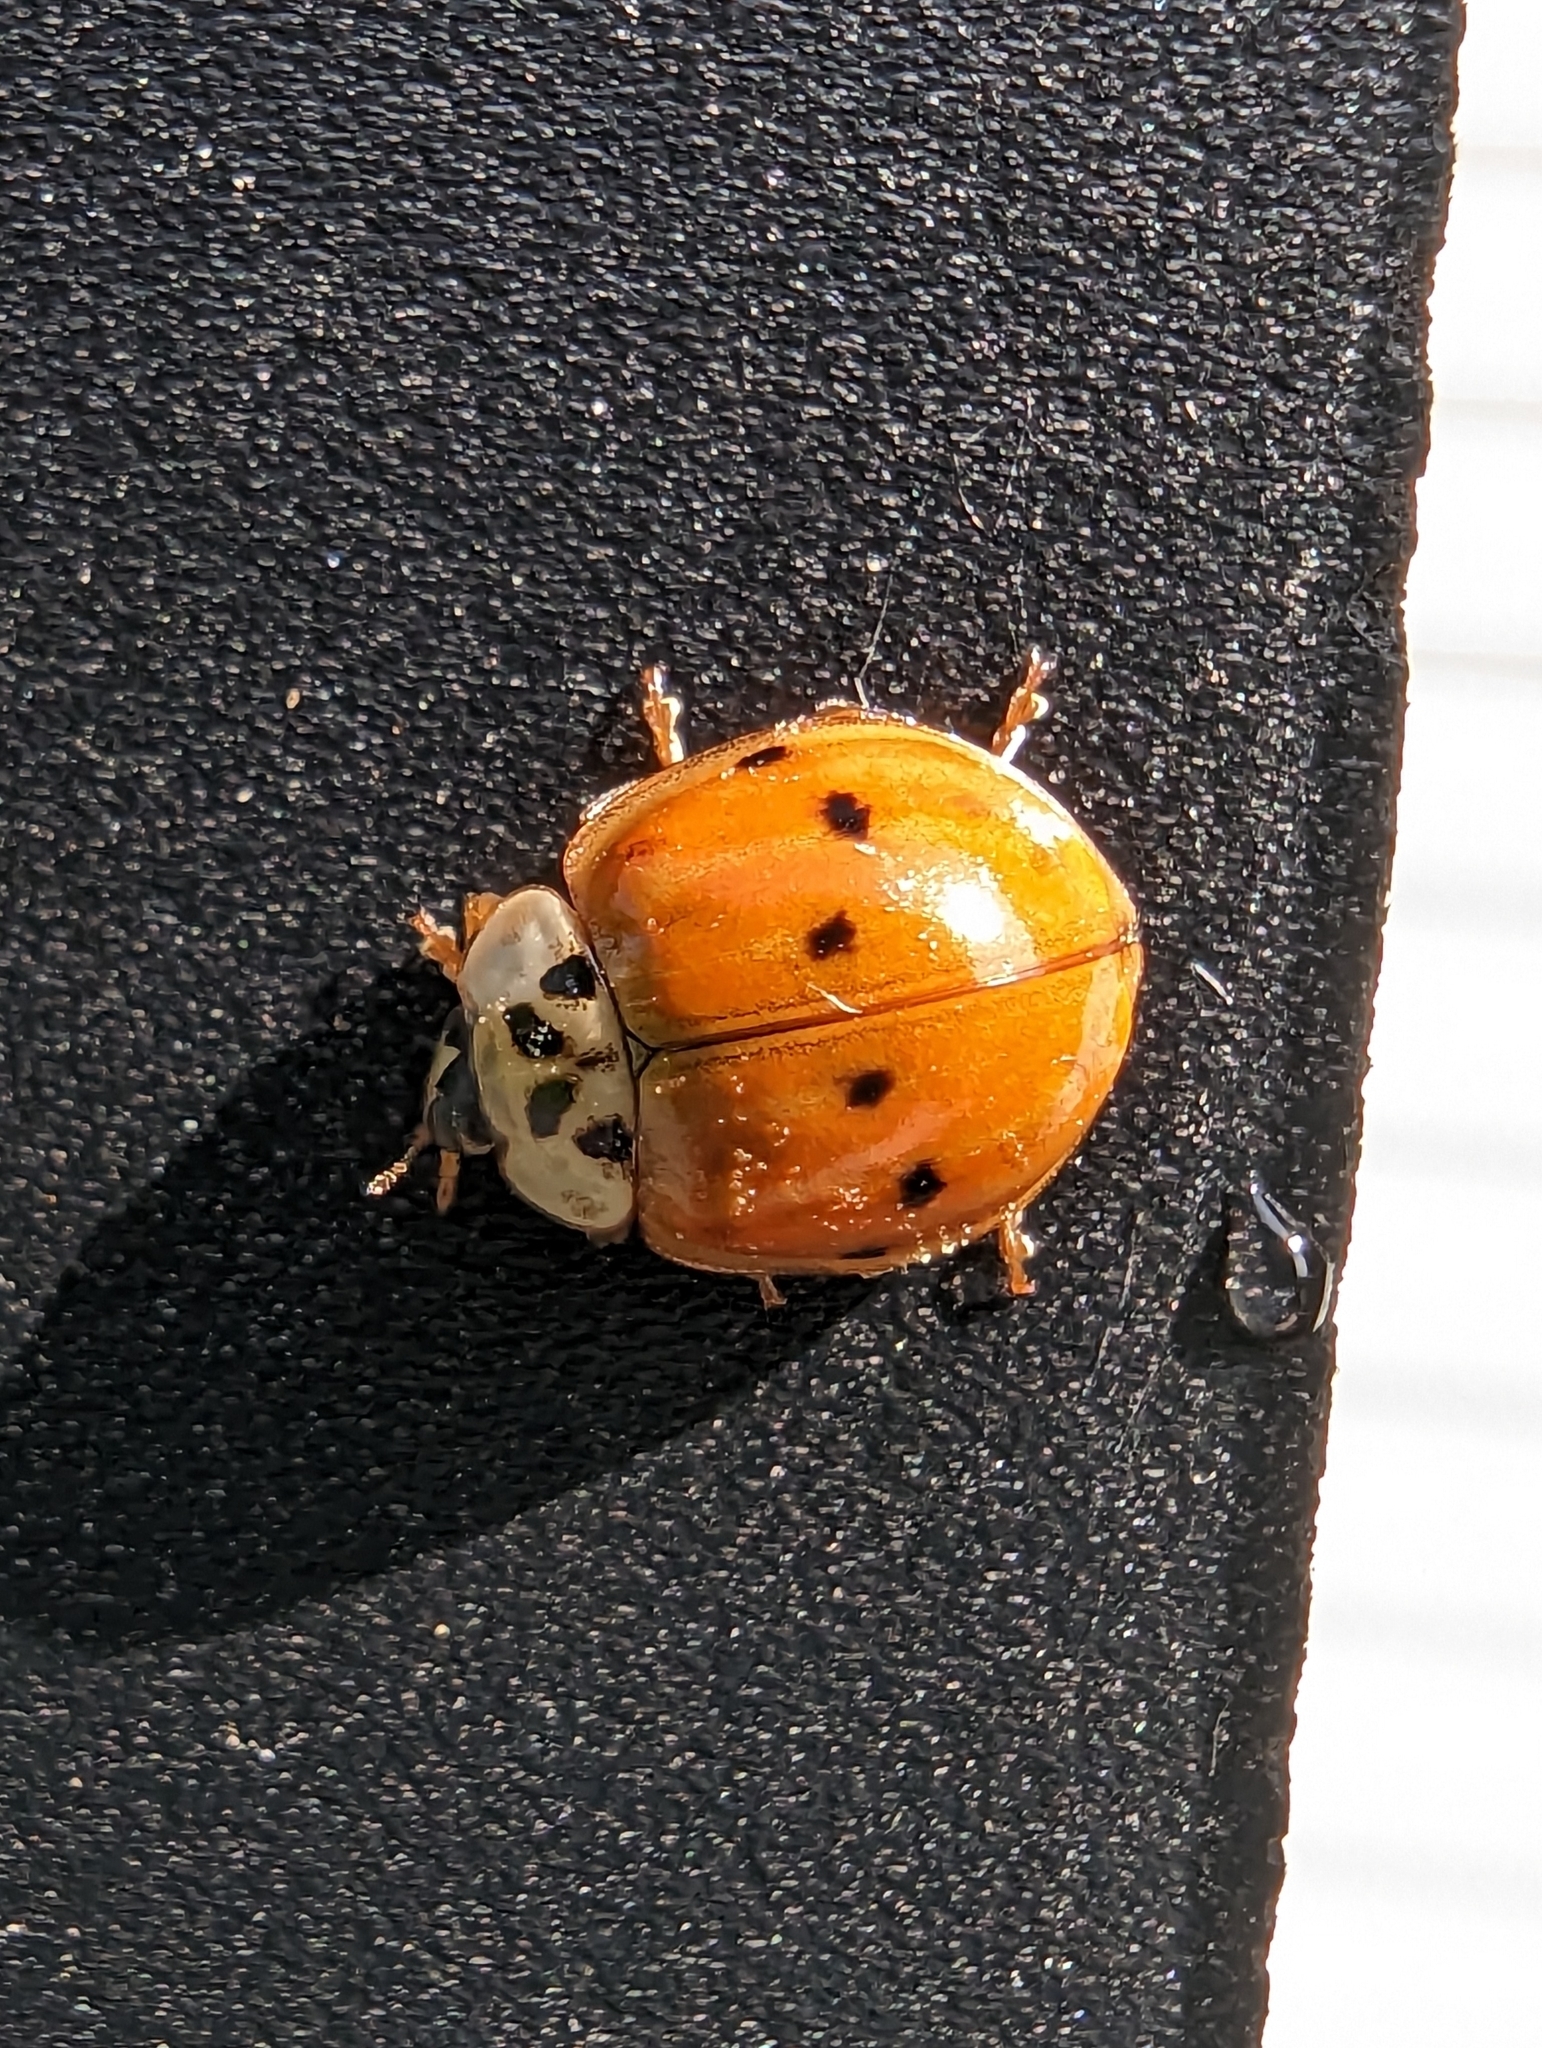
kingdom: Animalia
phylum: Arthropoda
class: Insecta
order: Coleoptera
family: Coccinellidae
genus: Harmonia
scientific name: Harmonia axyridis
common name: Harlequin ladybird
